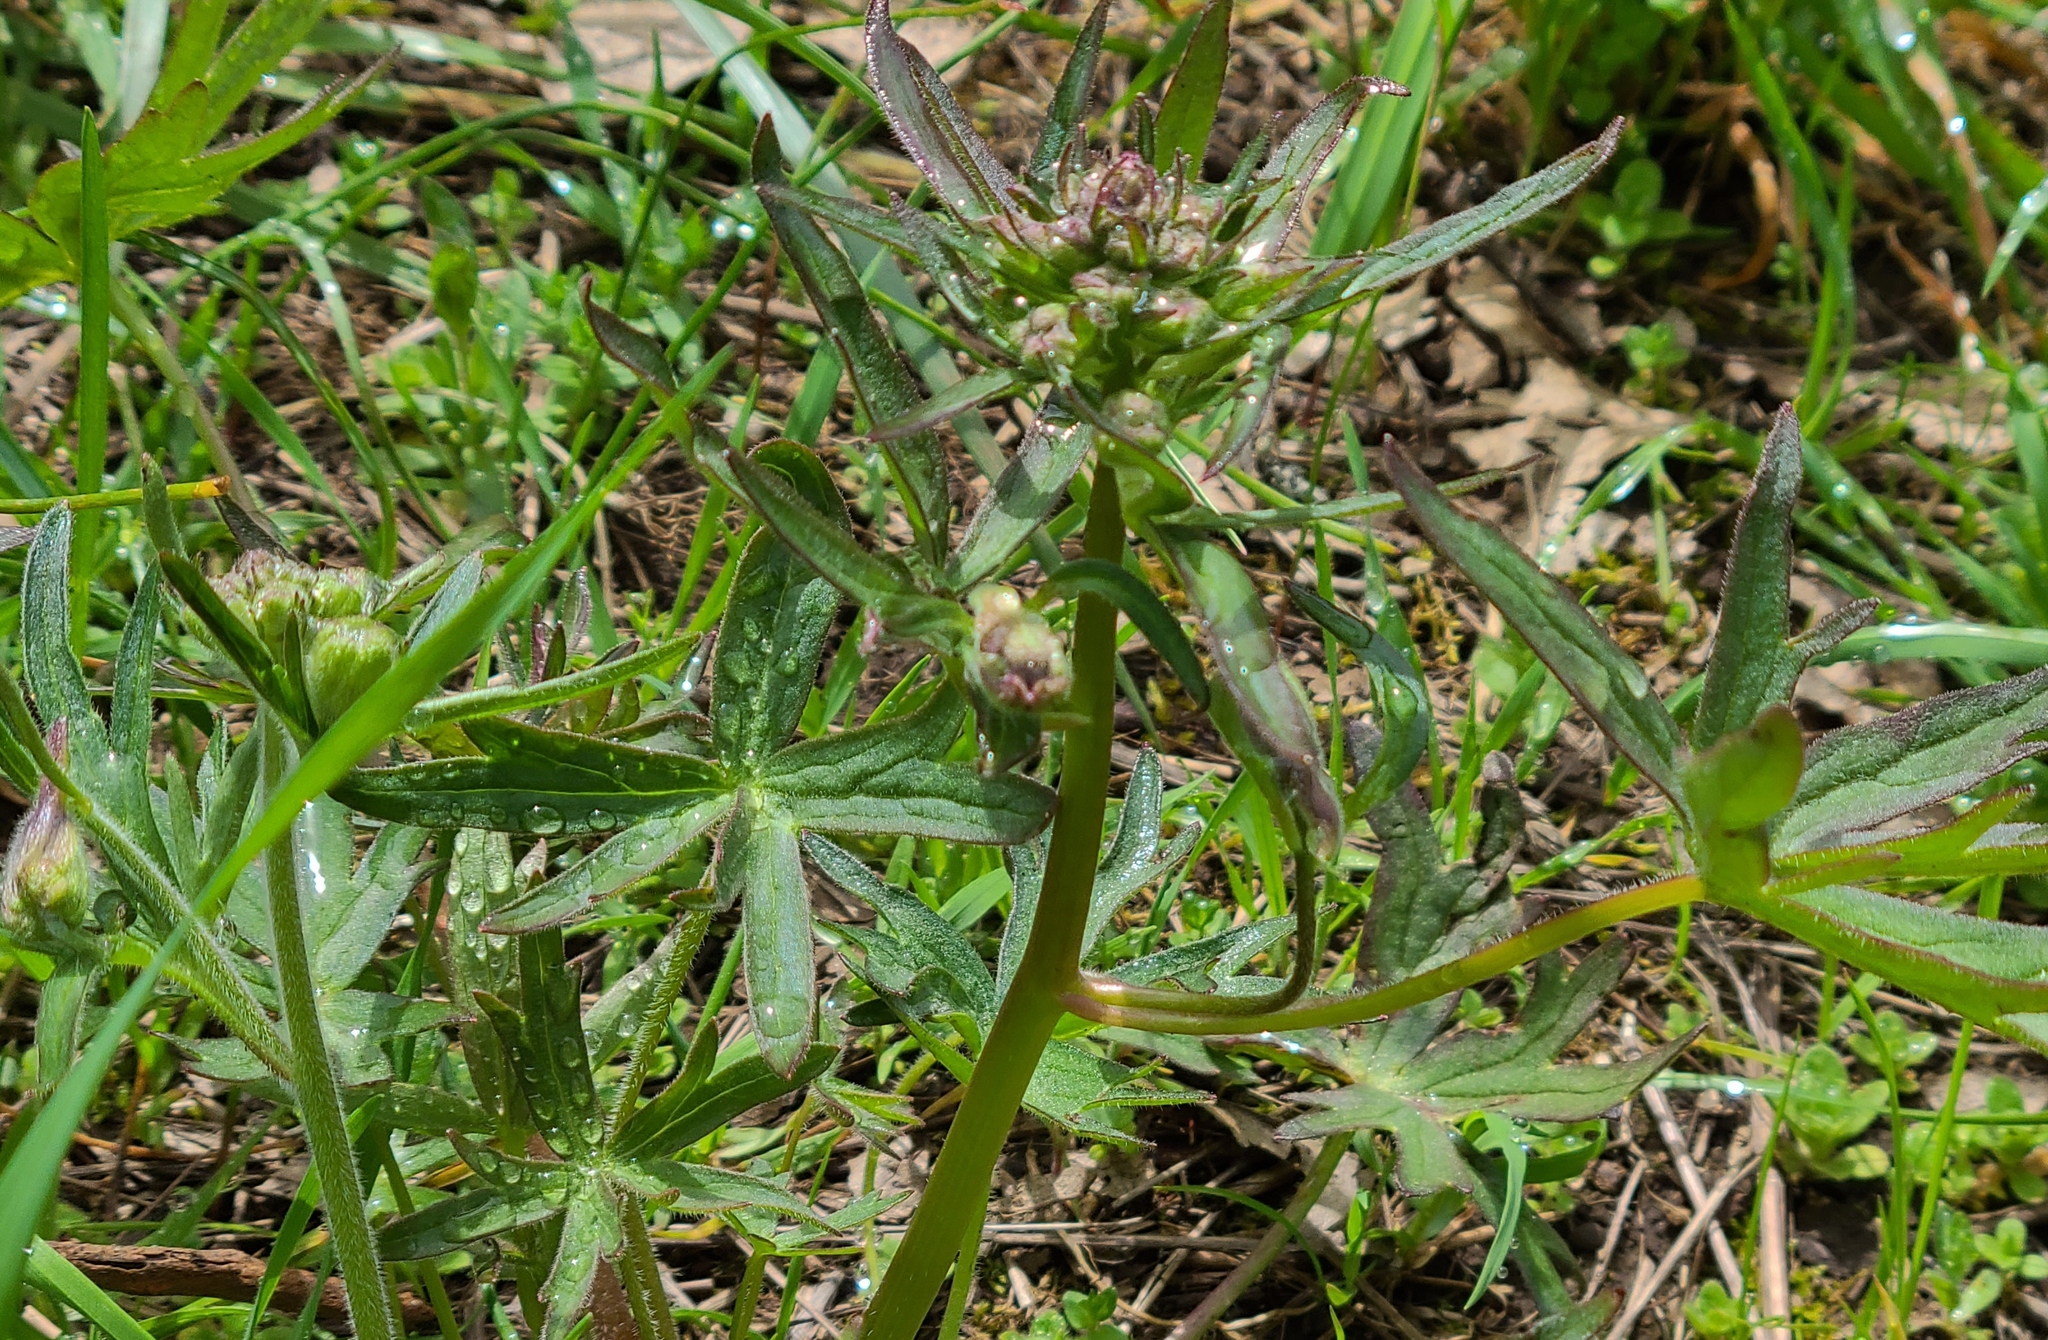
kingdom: Plantae
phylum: Tracheophyta
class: Magnoliopsida
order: Ranunculales
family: Ranunculaceae
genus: Delphinium
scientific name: Delphinium menziesii
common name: Menzies's larkspur
